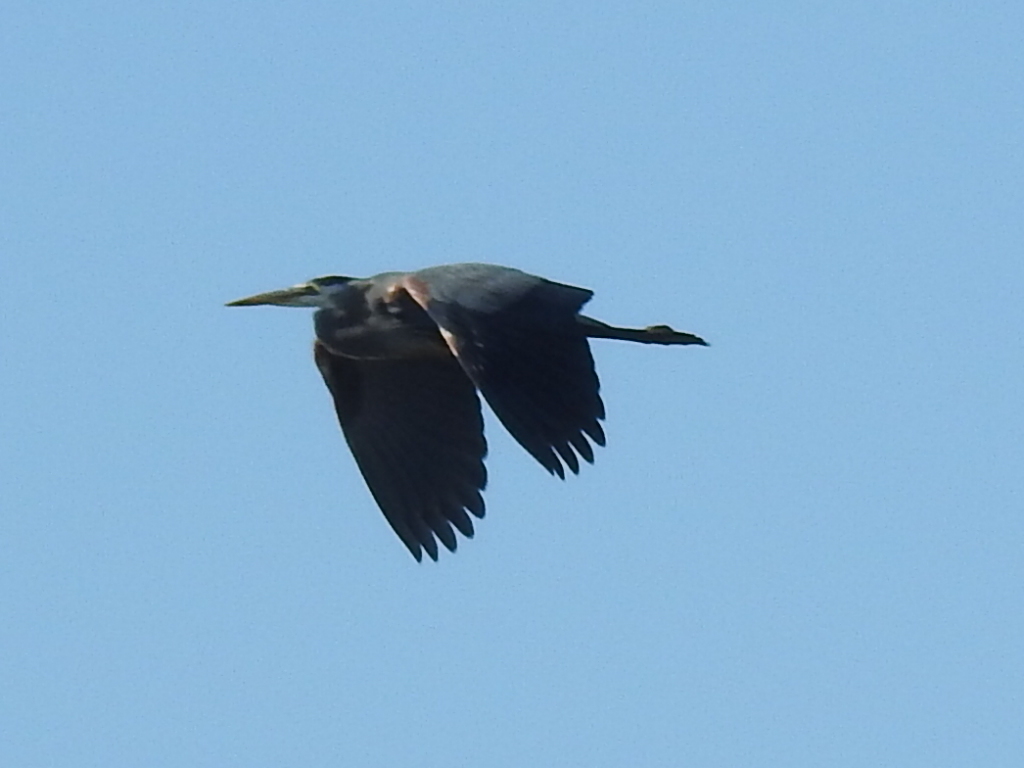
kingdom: Animalia
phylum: Chordata
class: Aves
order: Pelecaniformes
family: Ardeidae
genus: Ardea
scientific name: Ardea herodias
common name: Great blue heron
